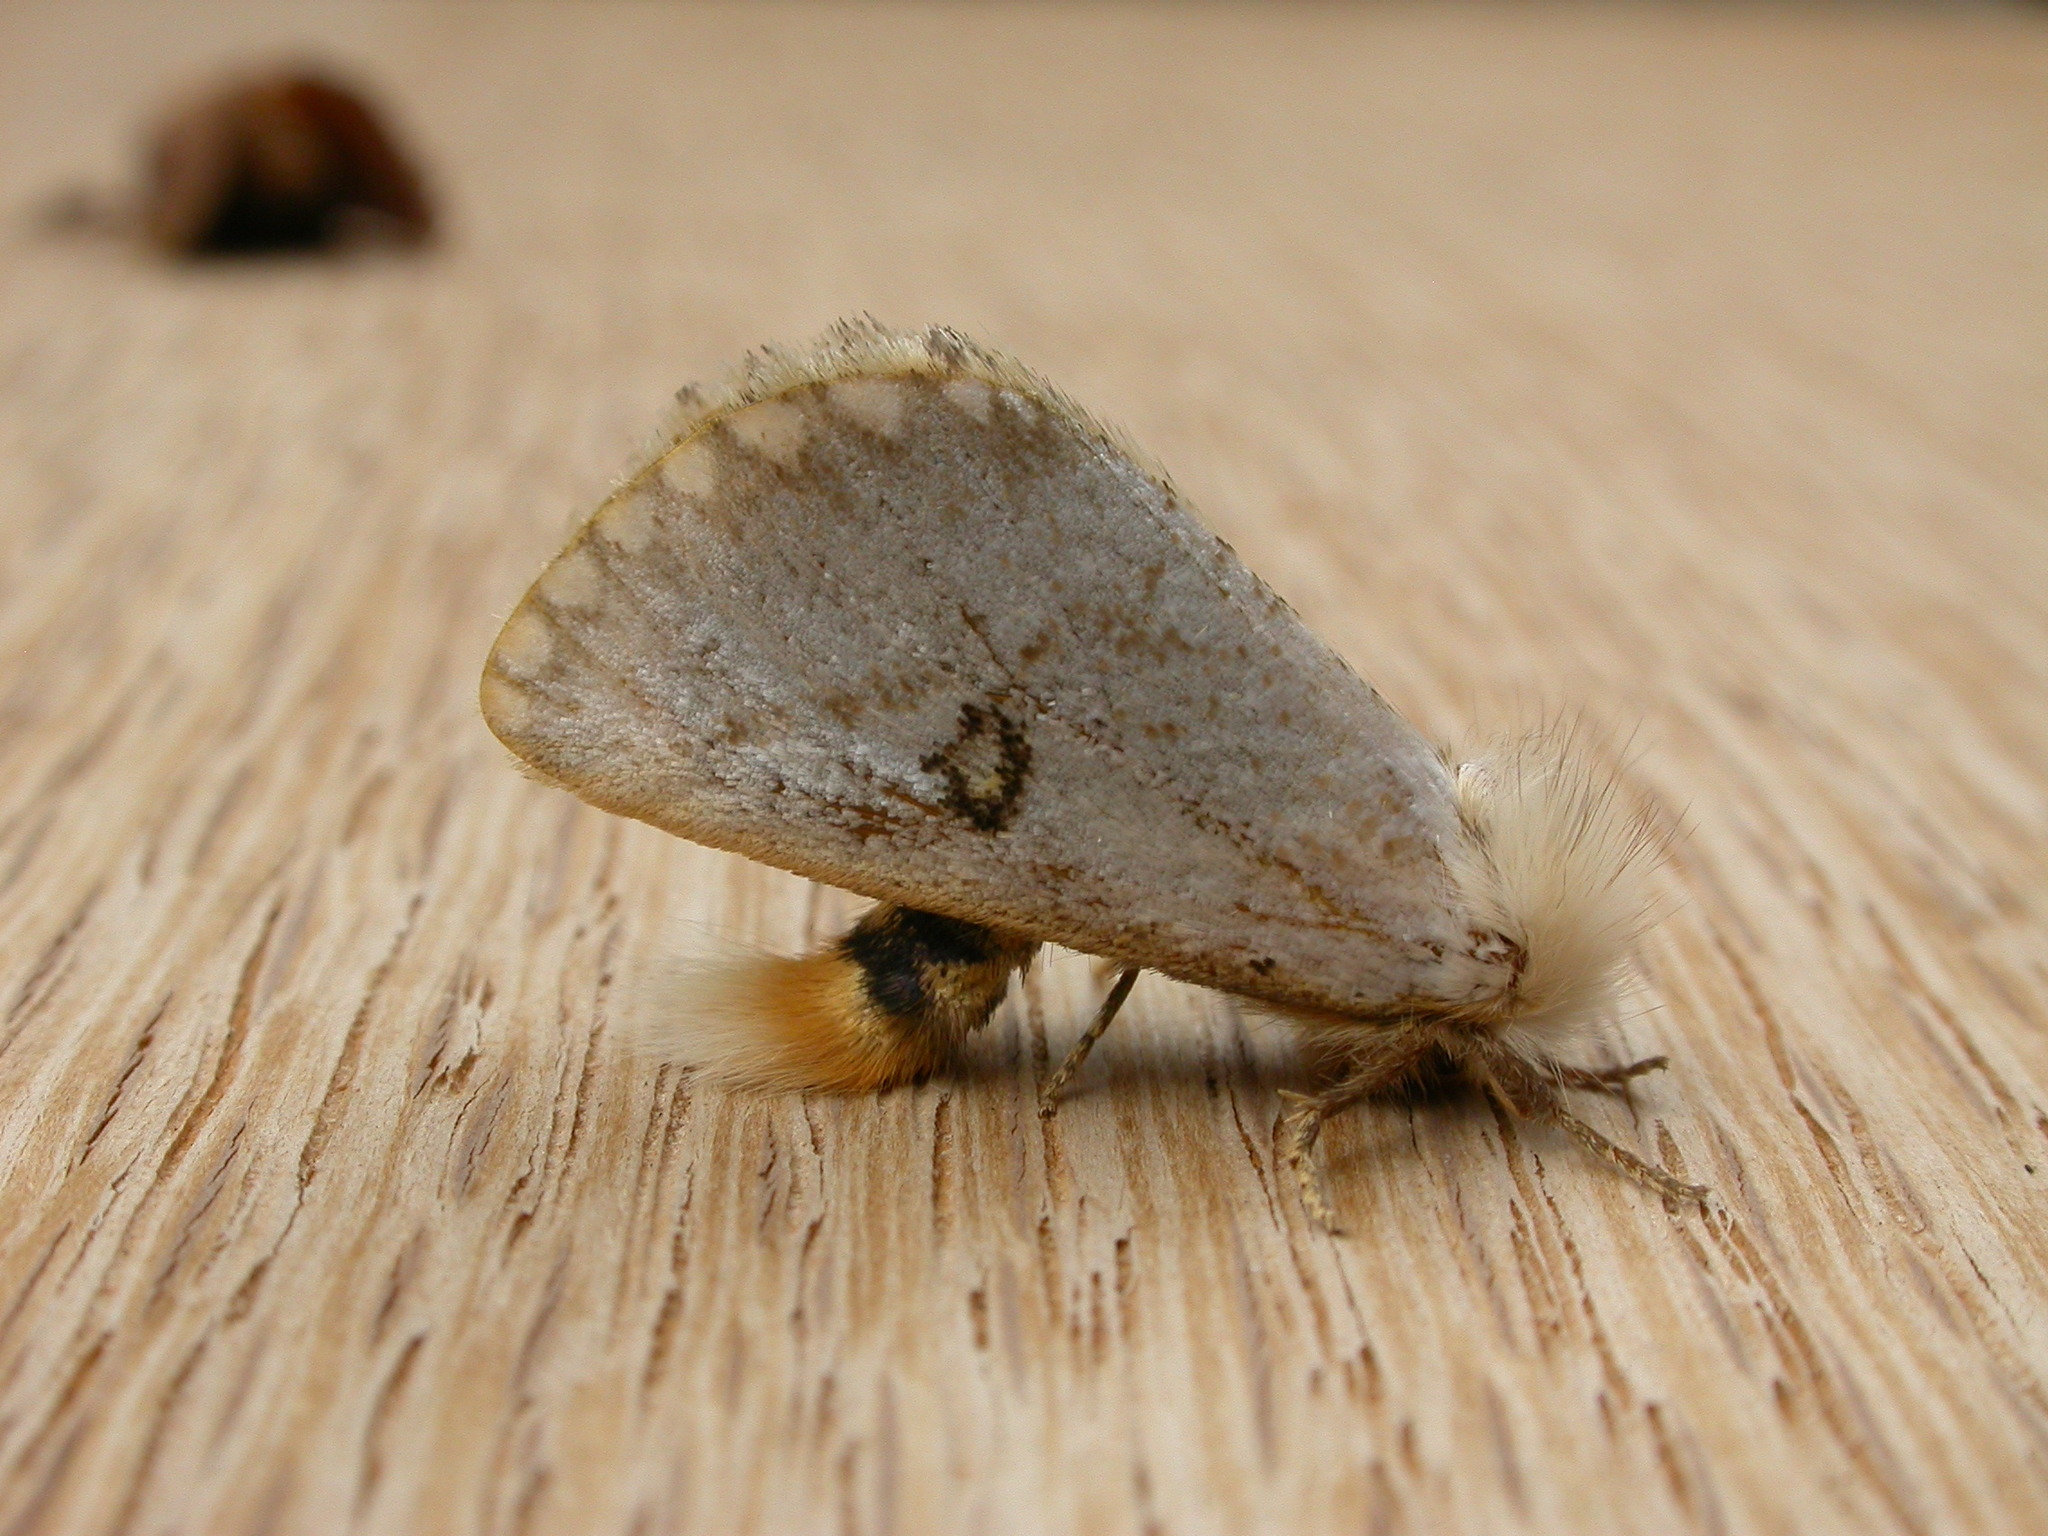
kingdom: Animalia
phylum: Arthropoda
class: Insecta
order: Lepidoptera
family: Notodontidae
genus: Epicoma
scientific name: Epicoma melanosticta
